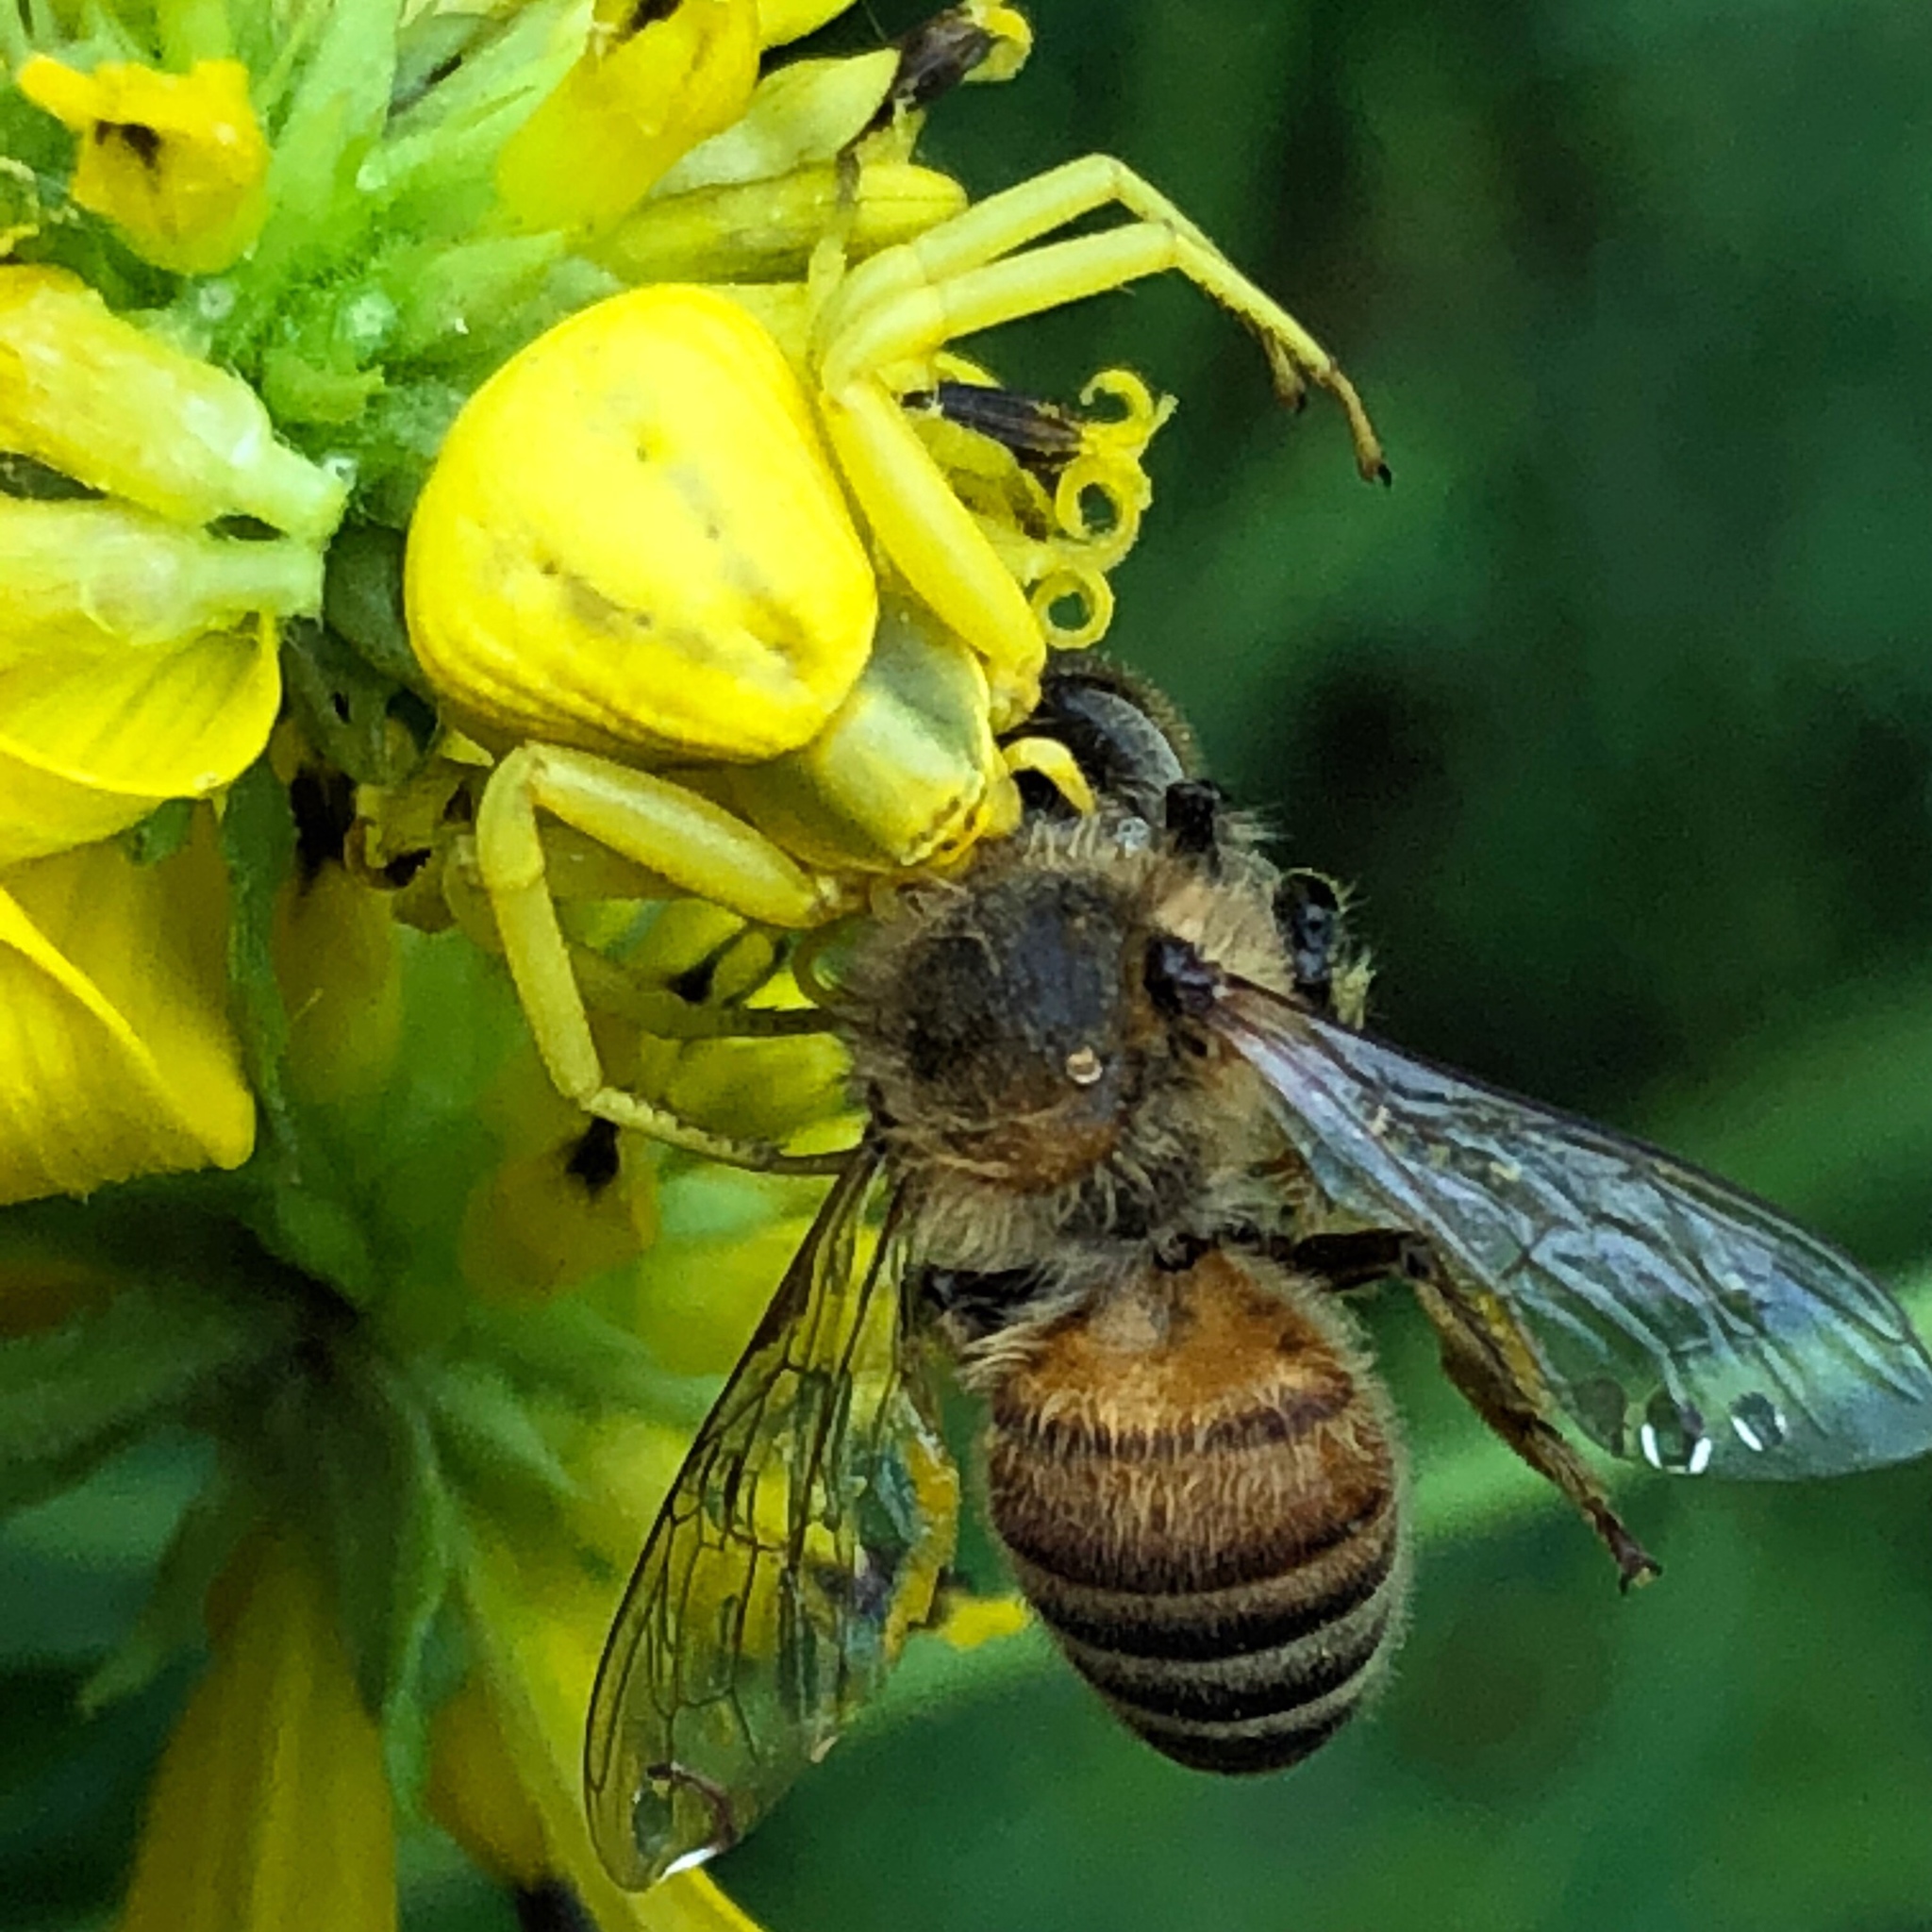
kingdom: Animalia
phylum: Arthropoda
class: Arachnida
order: Araneae
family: Thomisidae
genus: Misumenoides
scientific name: Misumenoides formosipes
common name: White-banded crab spider
